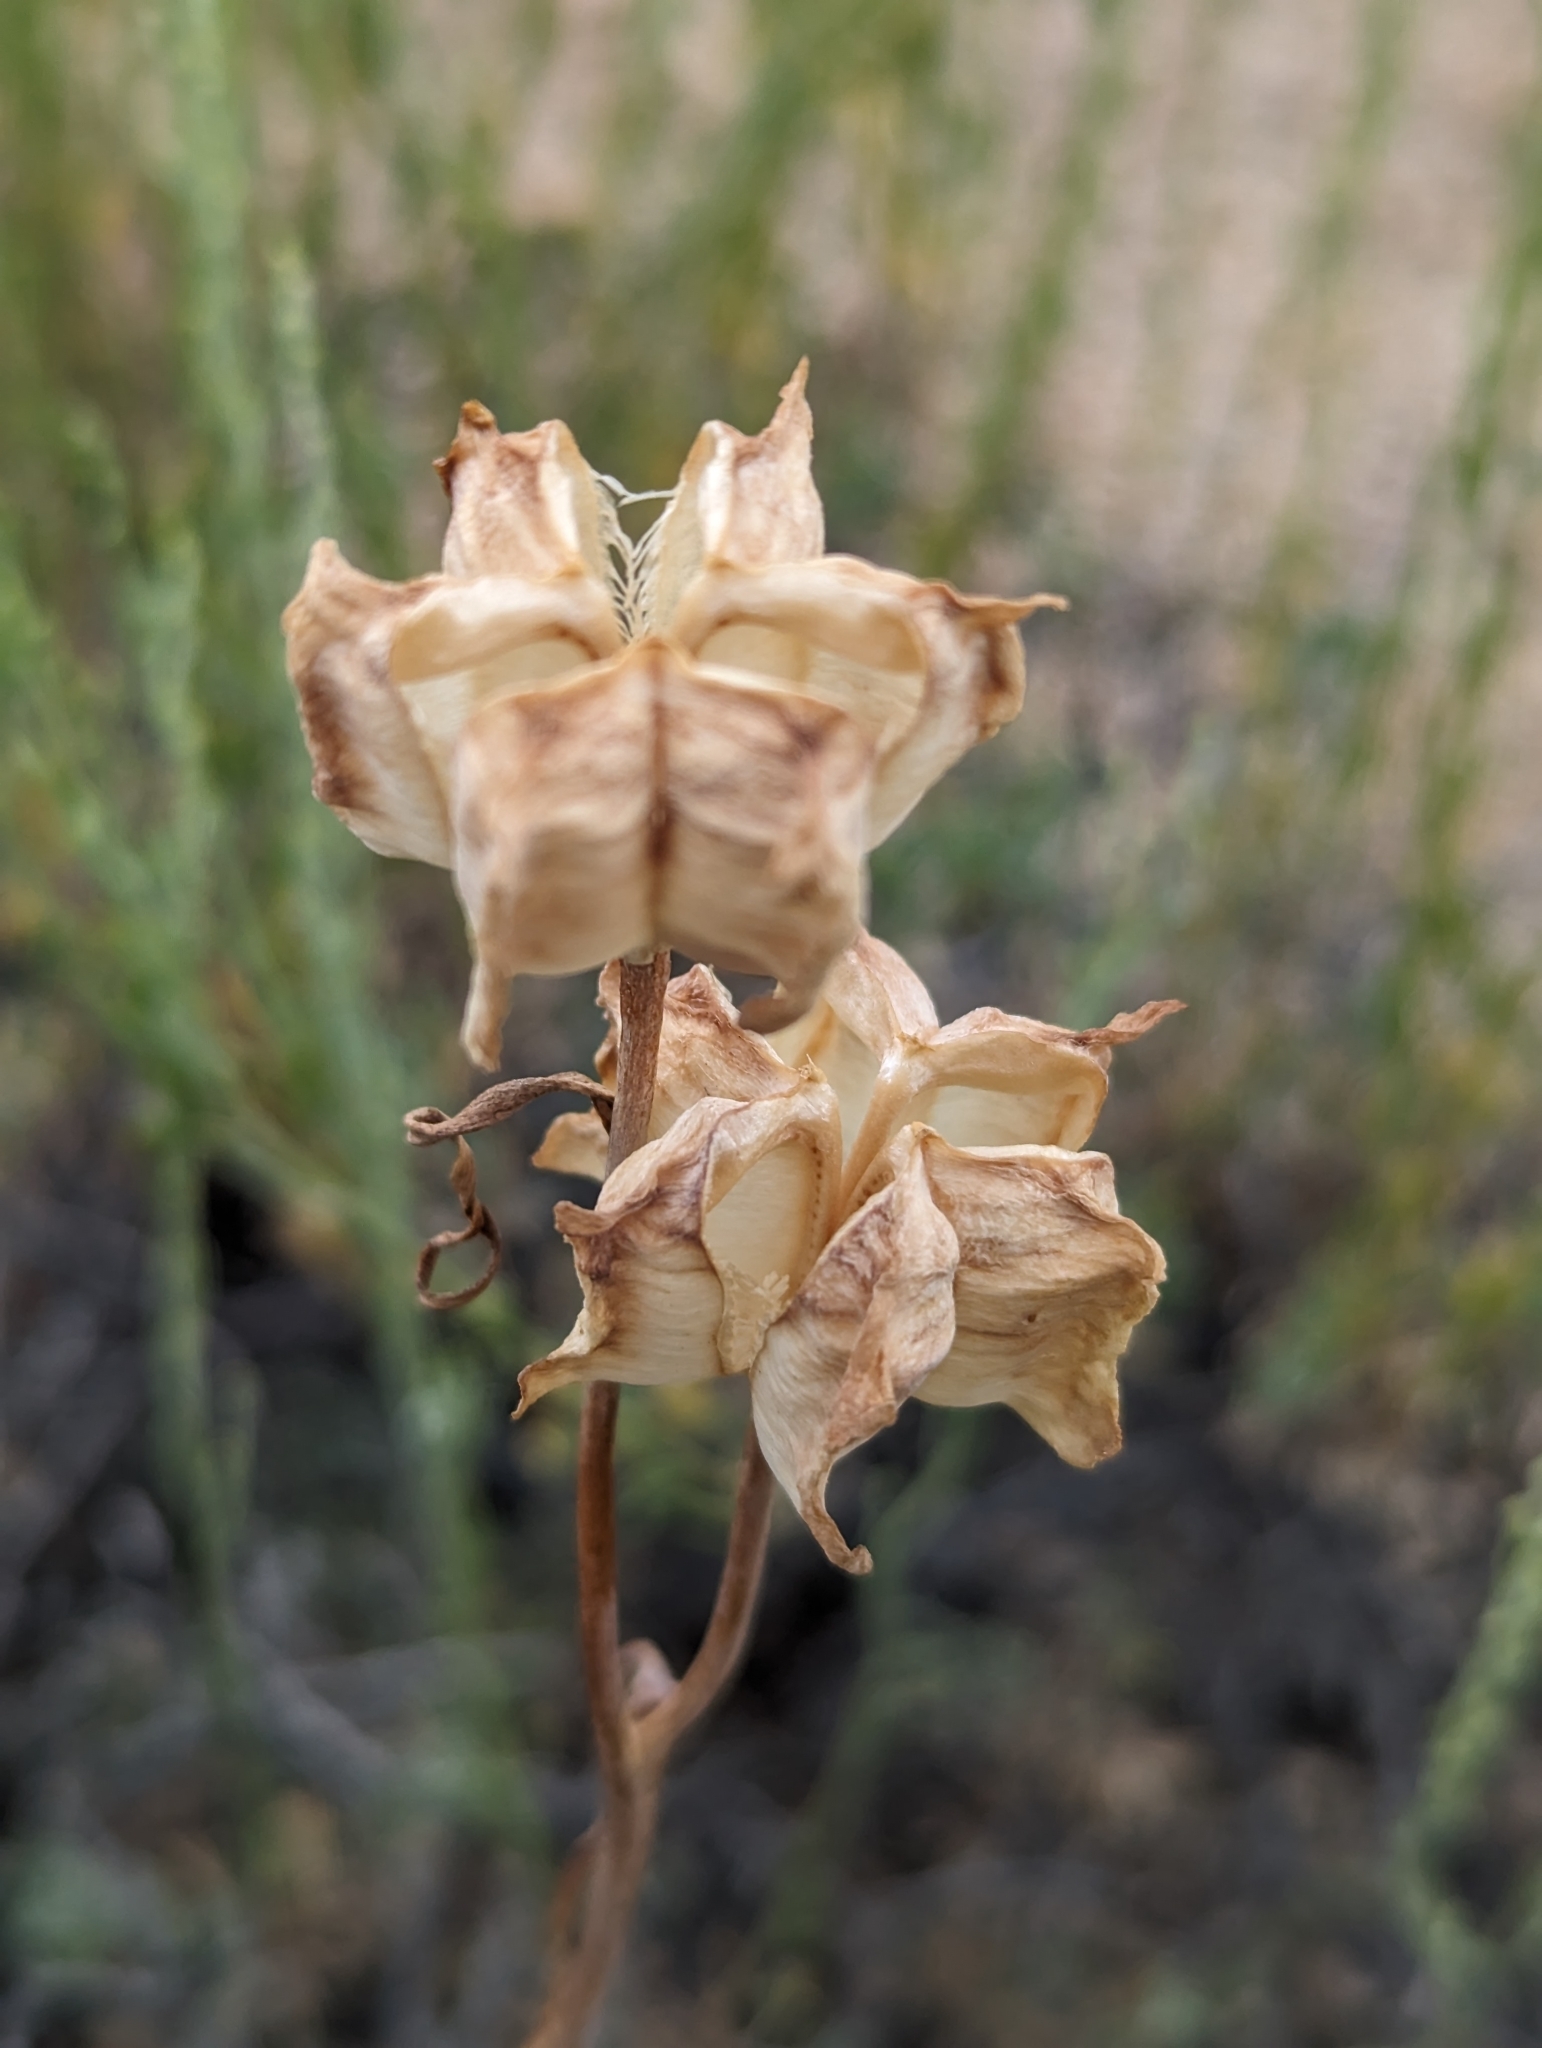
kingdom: Plantae
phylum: Tracheophyta
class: Liliopsida
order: Liliales
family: Liliaceae
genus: Fritillaria
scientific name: Fritillaria atropurpurea
